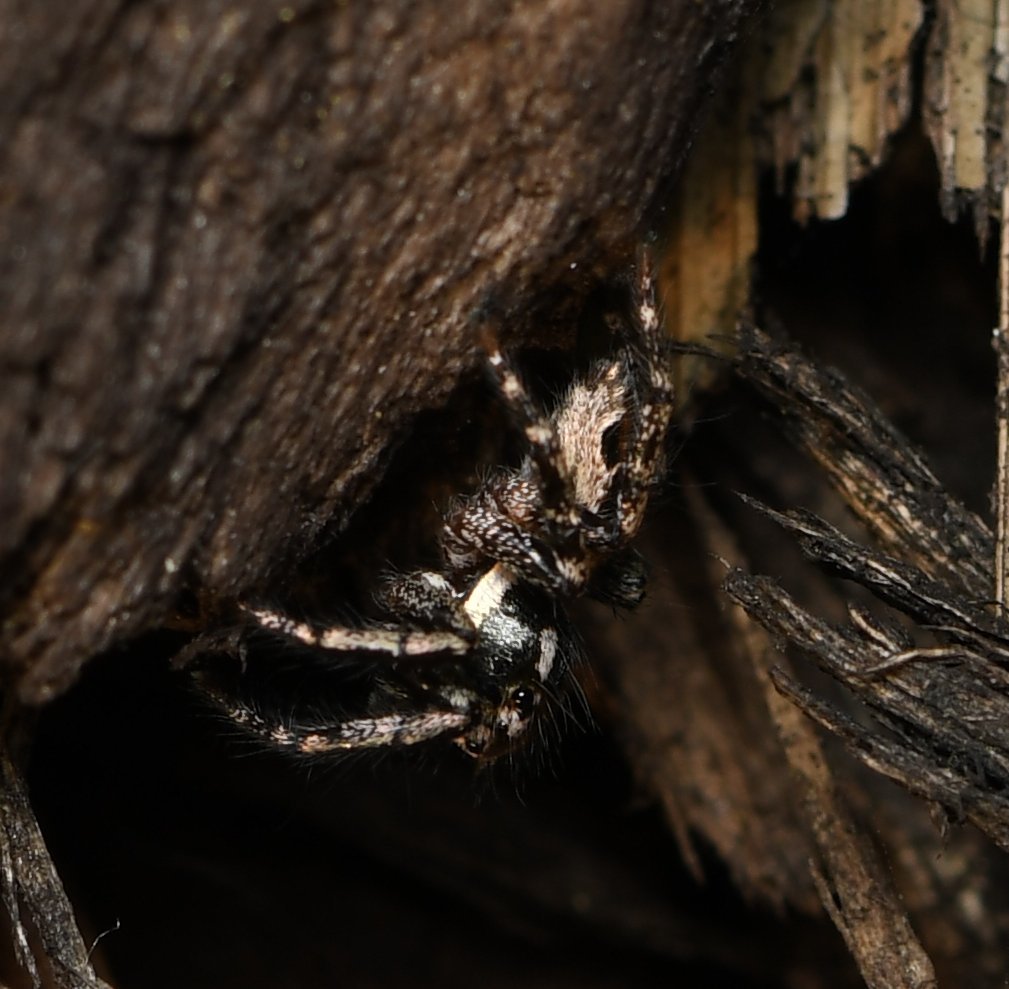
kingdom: Animalia
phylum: Arthropoda
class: Arachnida
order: Araneae
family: Salticidae
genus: Anasaitis
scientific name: Anasaitis canosa
